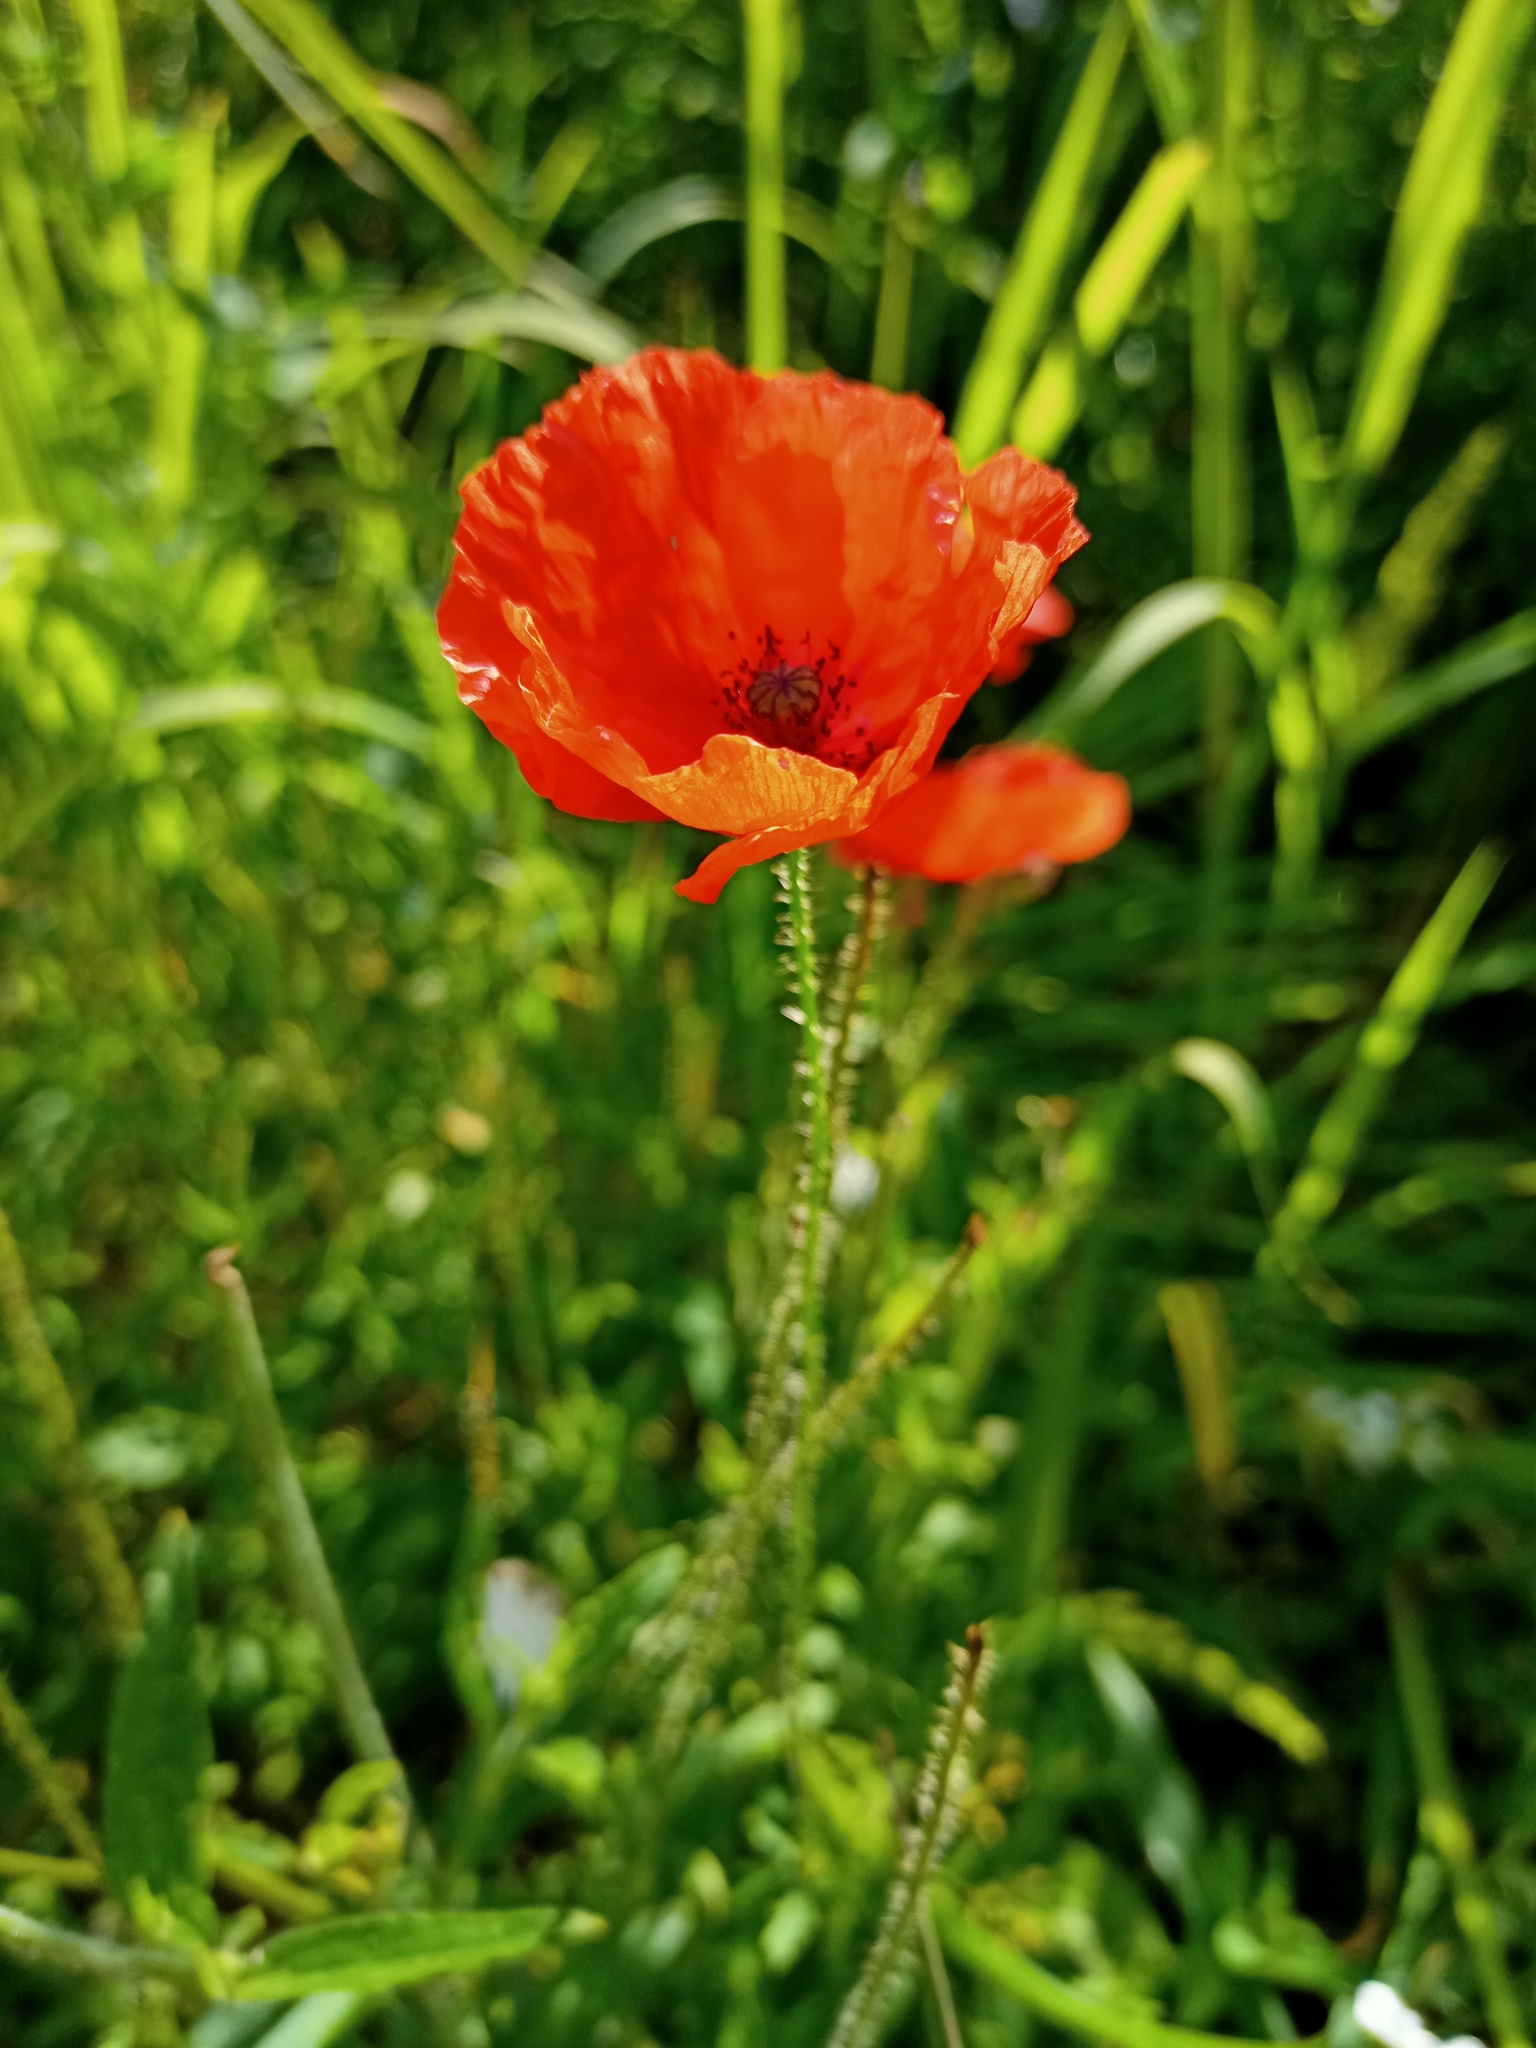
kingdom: Plantae
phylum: Tracheophyta
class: Magnoliopsida
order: Ranunculales
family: Papaveraceae
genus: Papaver
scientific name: Papaver rhoeas
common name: Corn poppy
